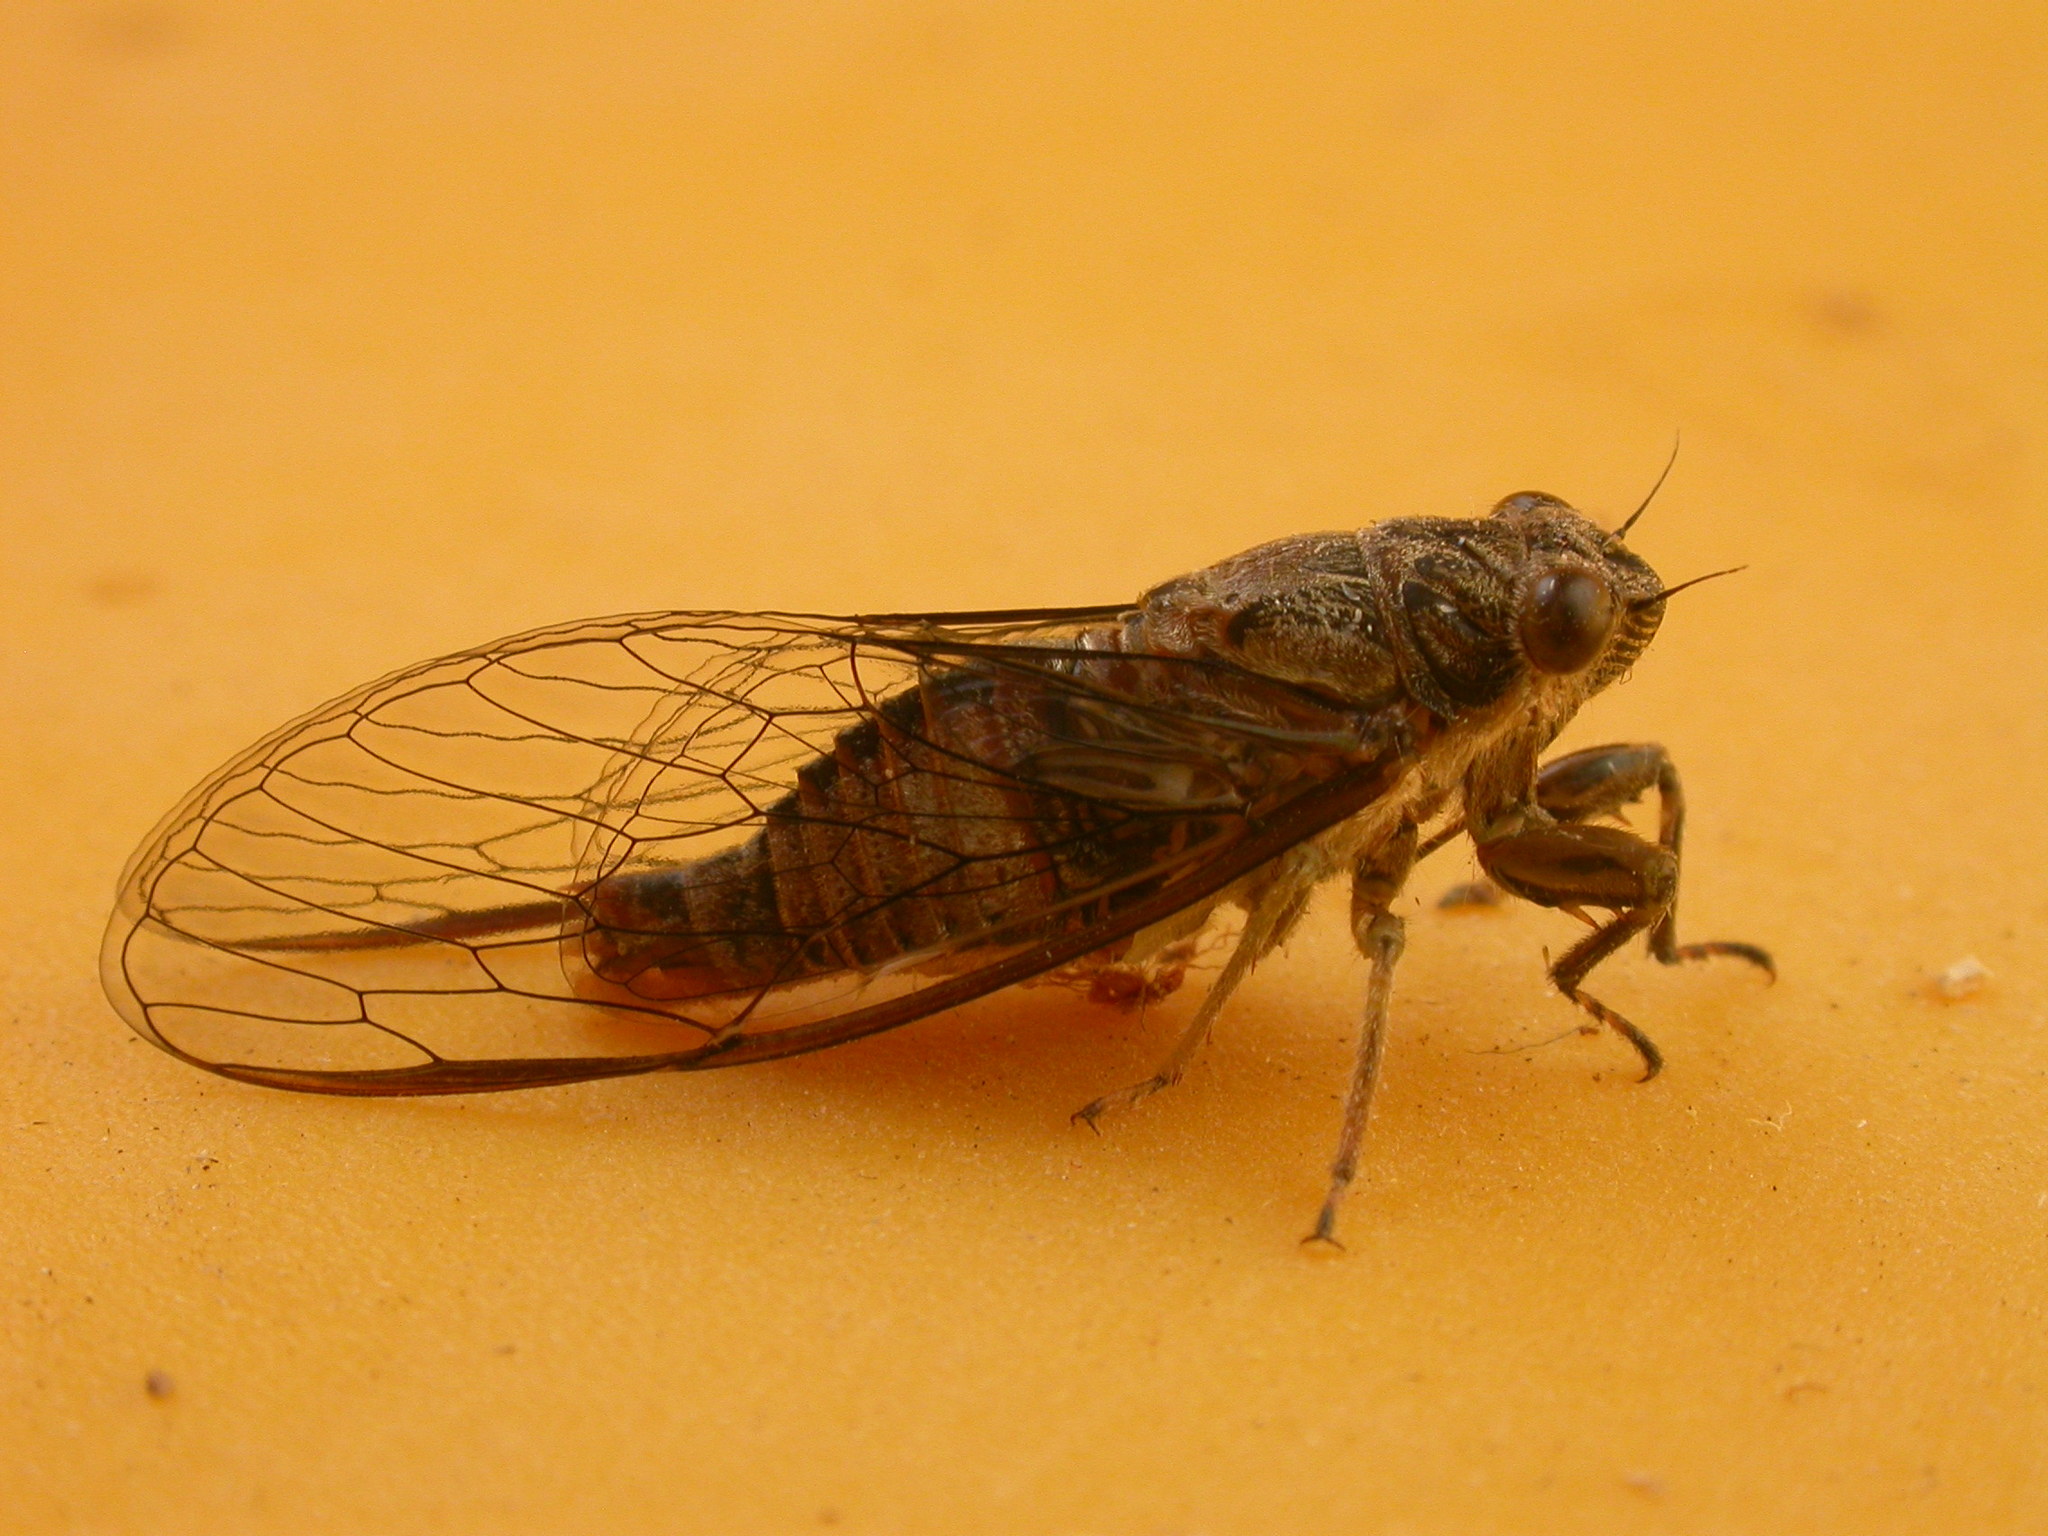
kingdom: Animalia
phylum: Arthropoda
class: Insecta
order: Hemiptera
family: Cicadidae
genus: Yoyetta
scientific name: Yoyetta celis
